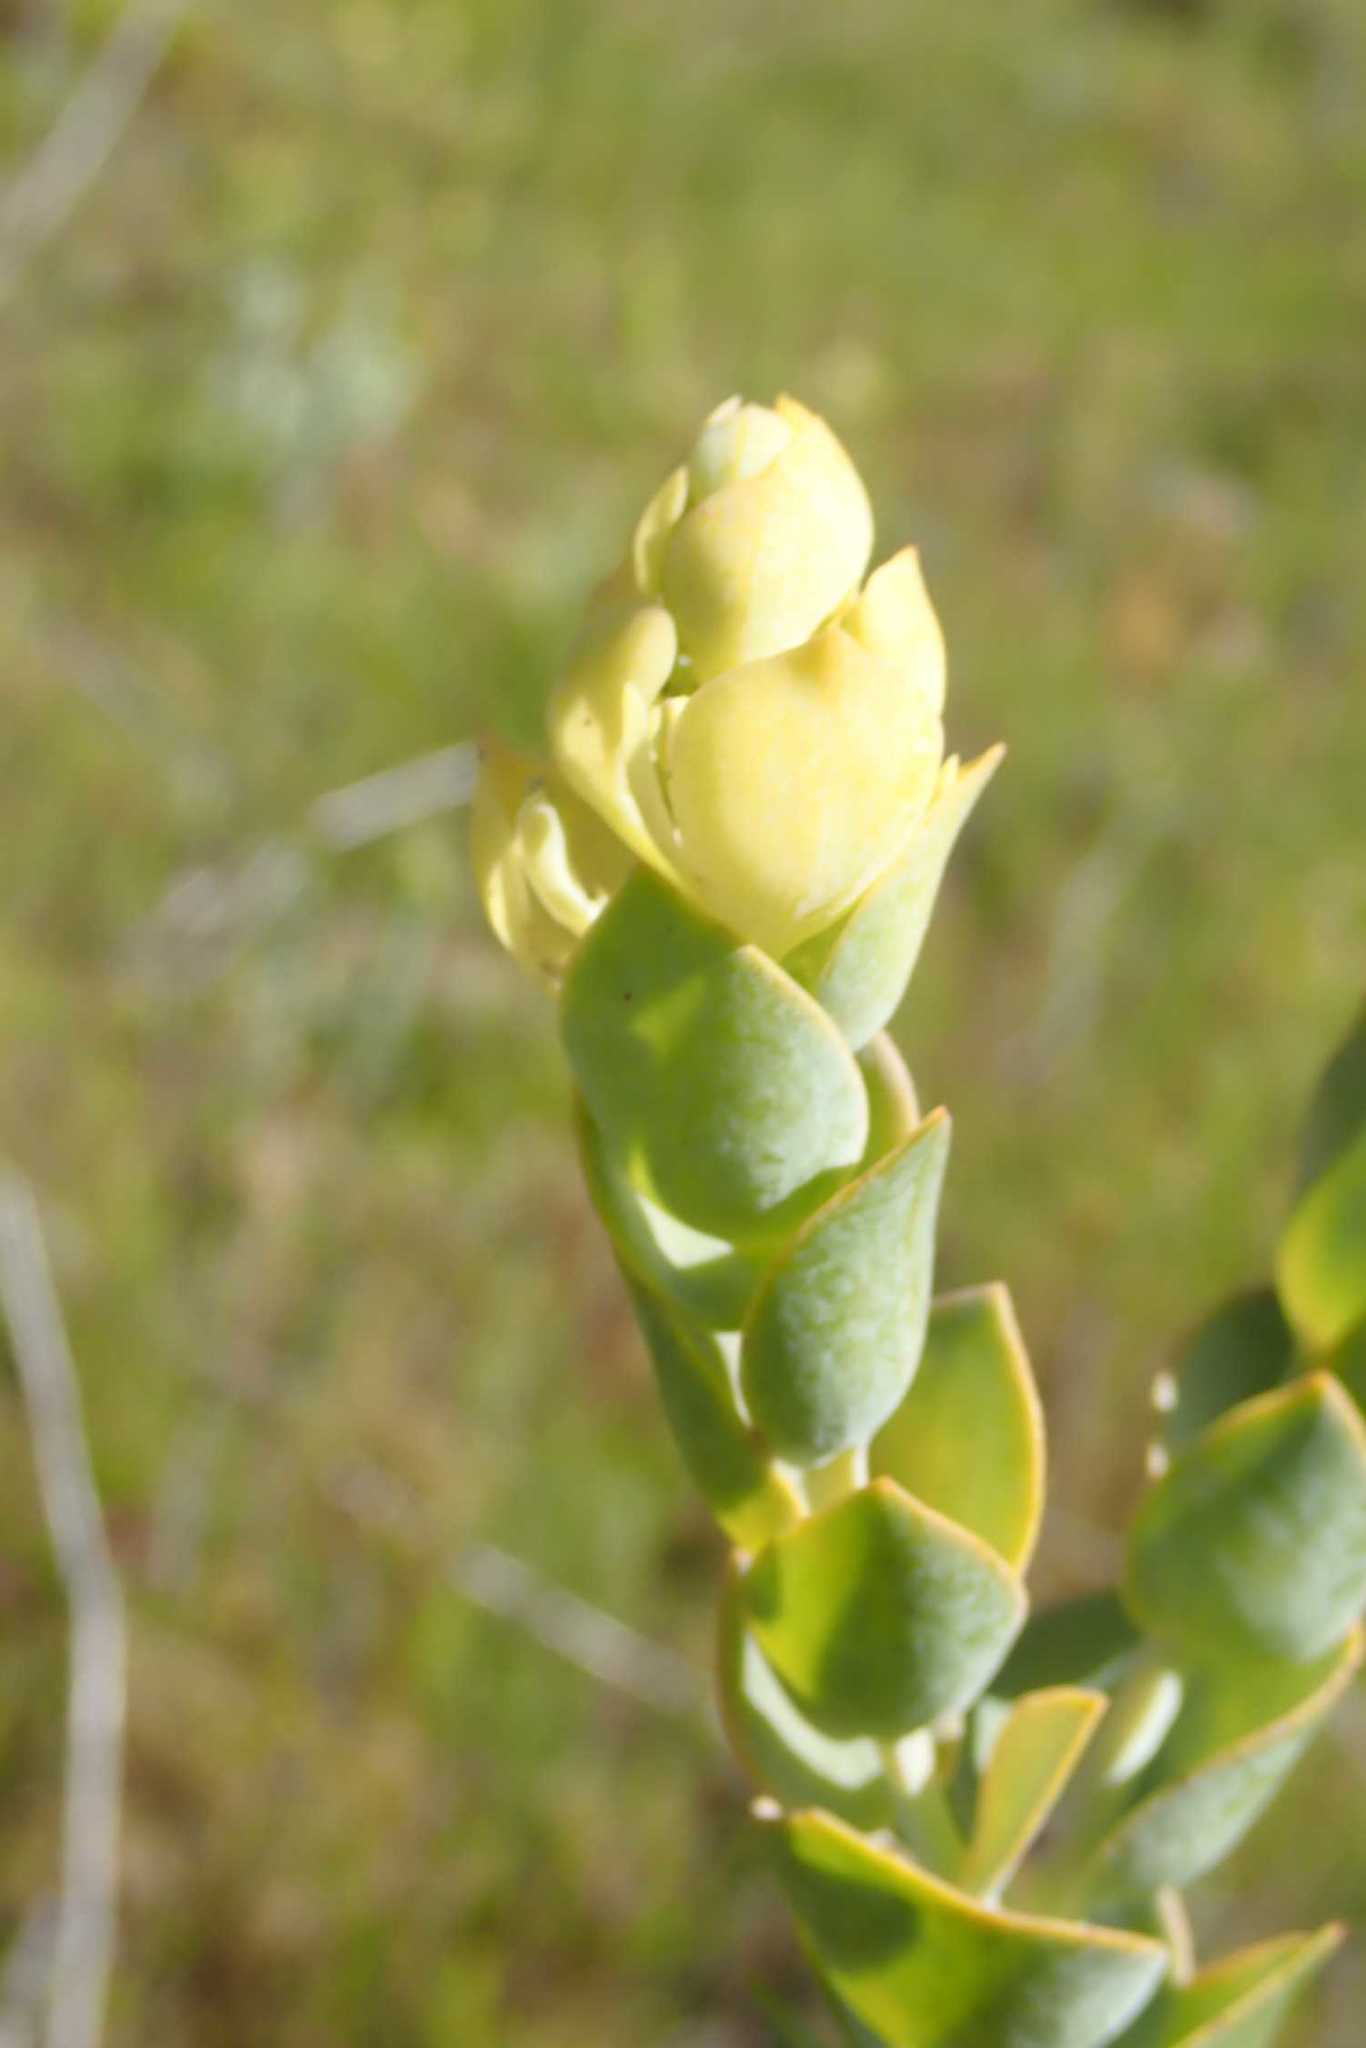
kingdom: Plantae
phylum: Tracheophyta
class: Magnoliopsida
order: Santalales
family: Thesiaceae
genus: Thesium
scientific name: Thesium euphorbioides
